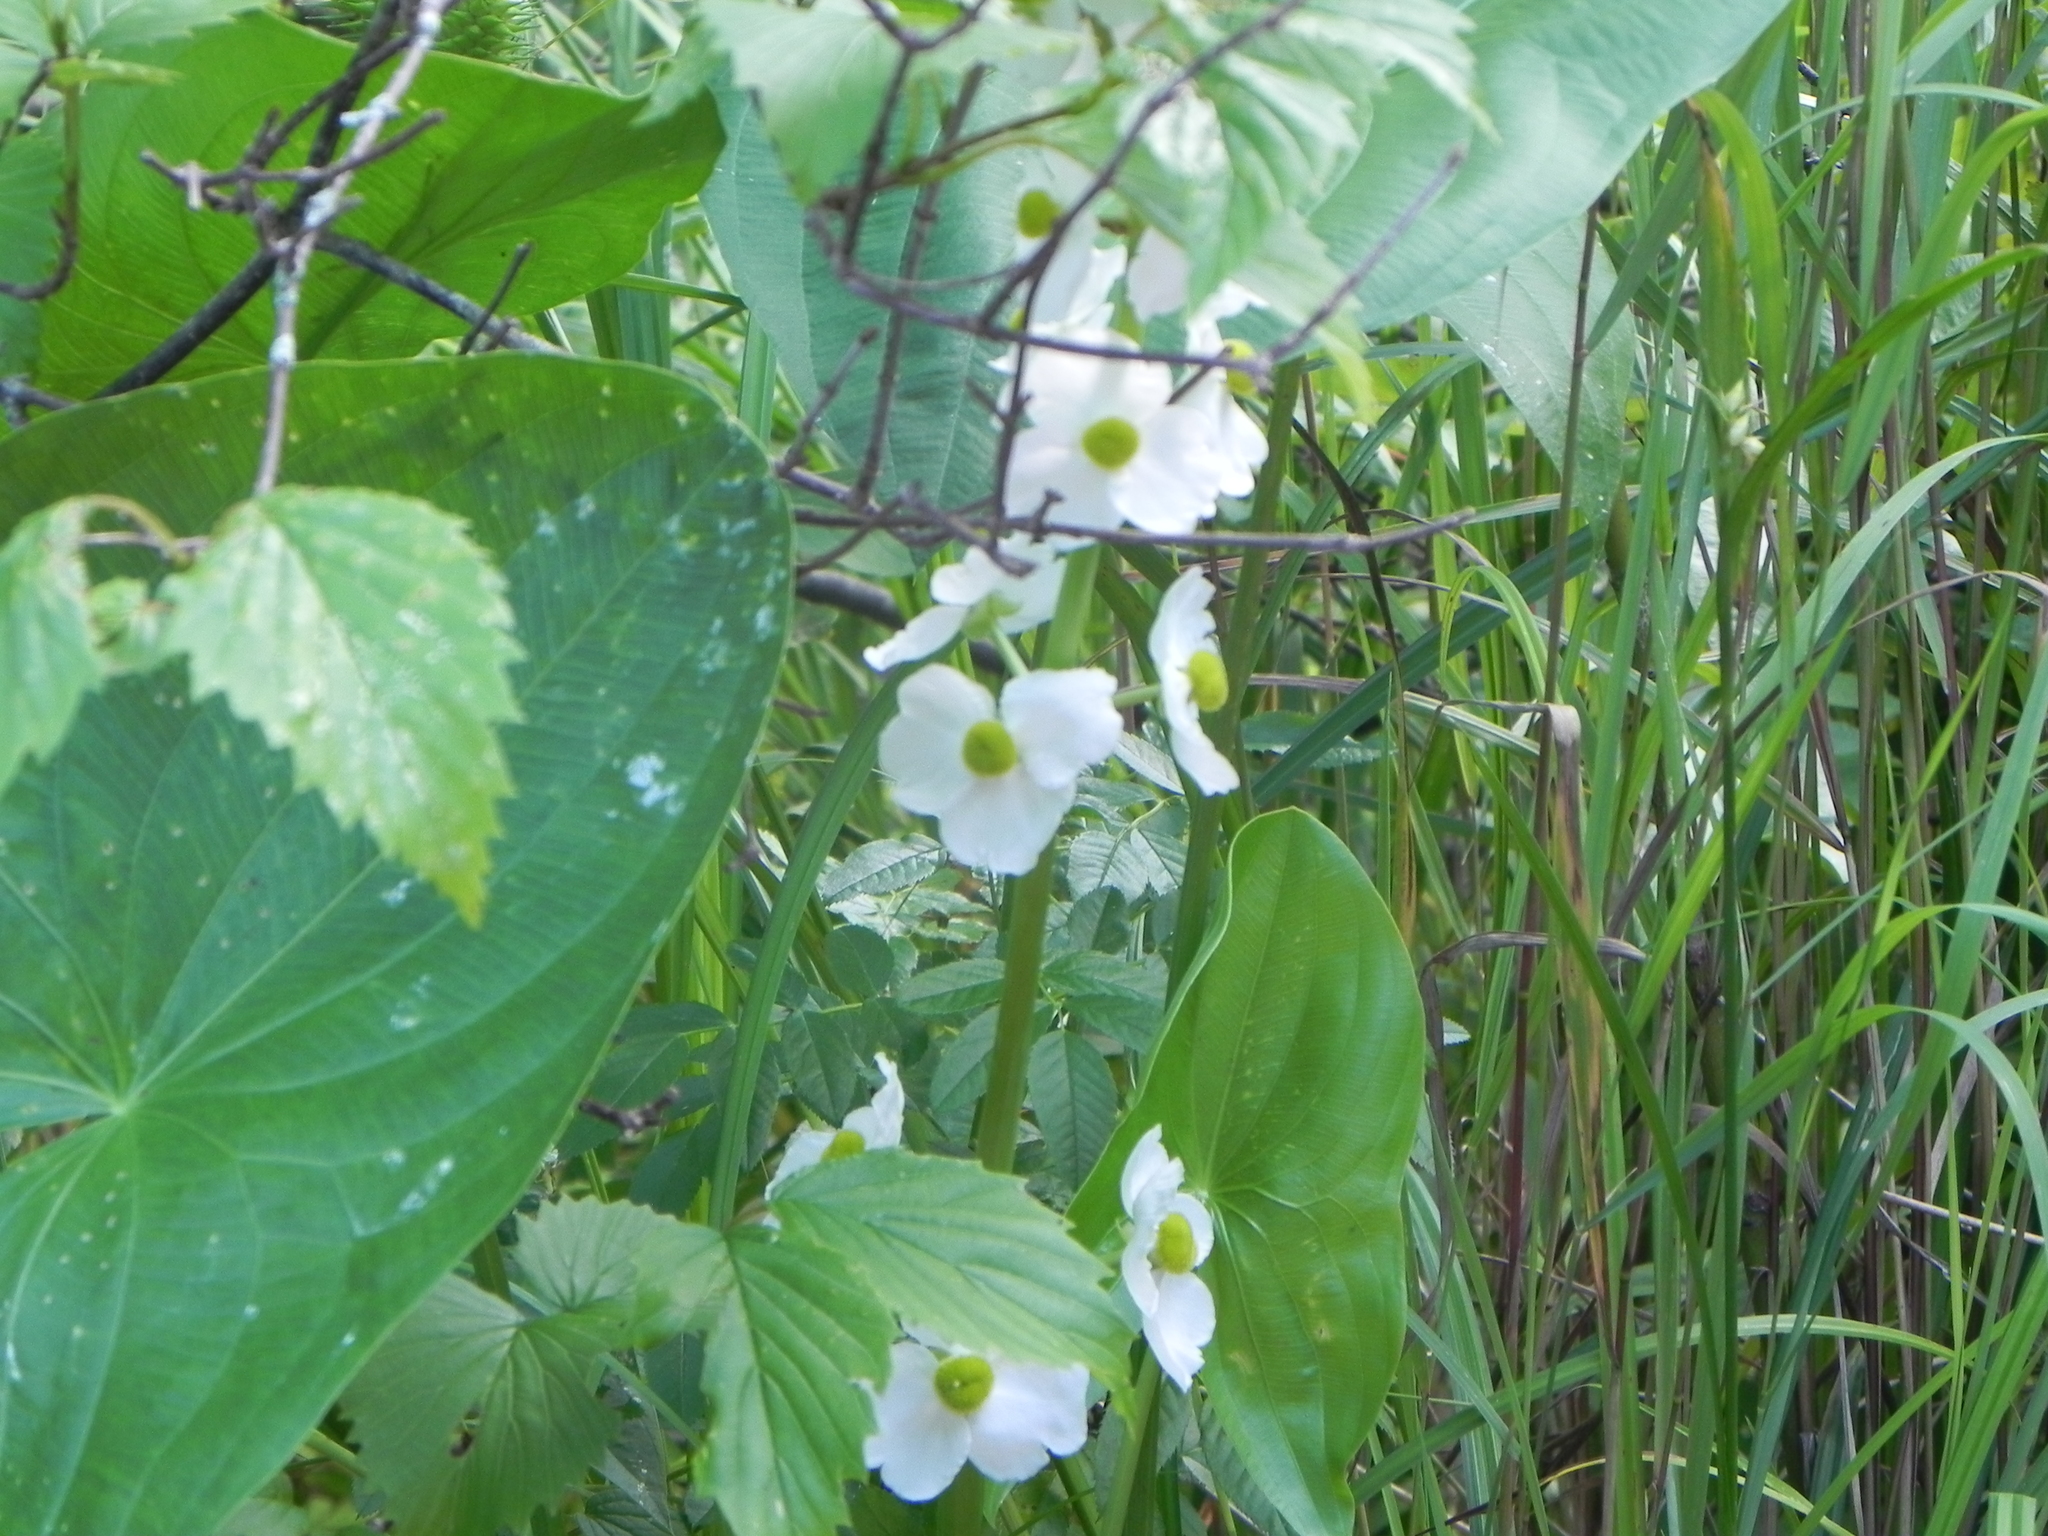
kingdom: Plantae
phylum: Tracheophyta
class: Liliopsida
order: Alismatales
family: Alismataceae
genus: Sagittaria
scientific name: Sagittaria latifolia
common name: Duck-potato
